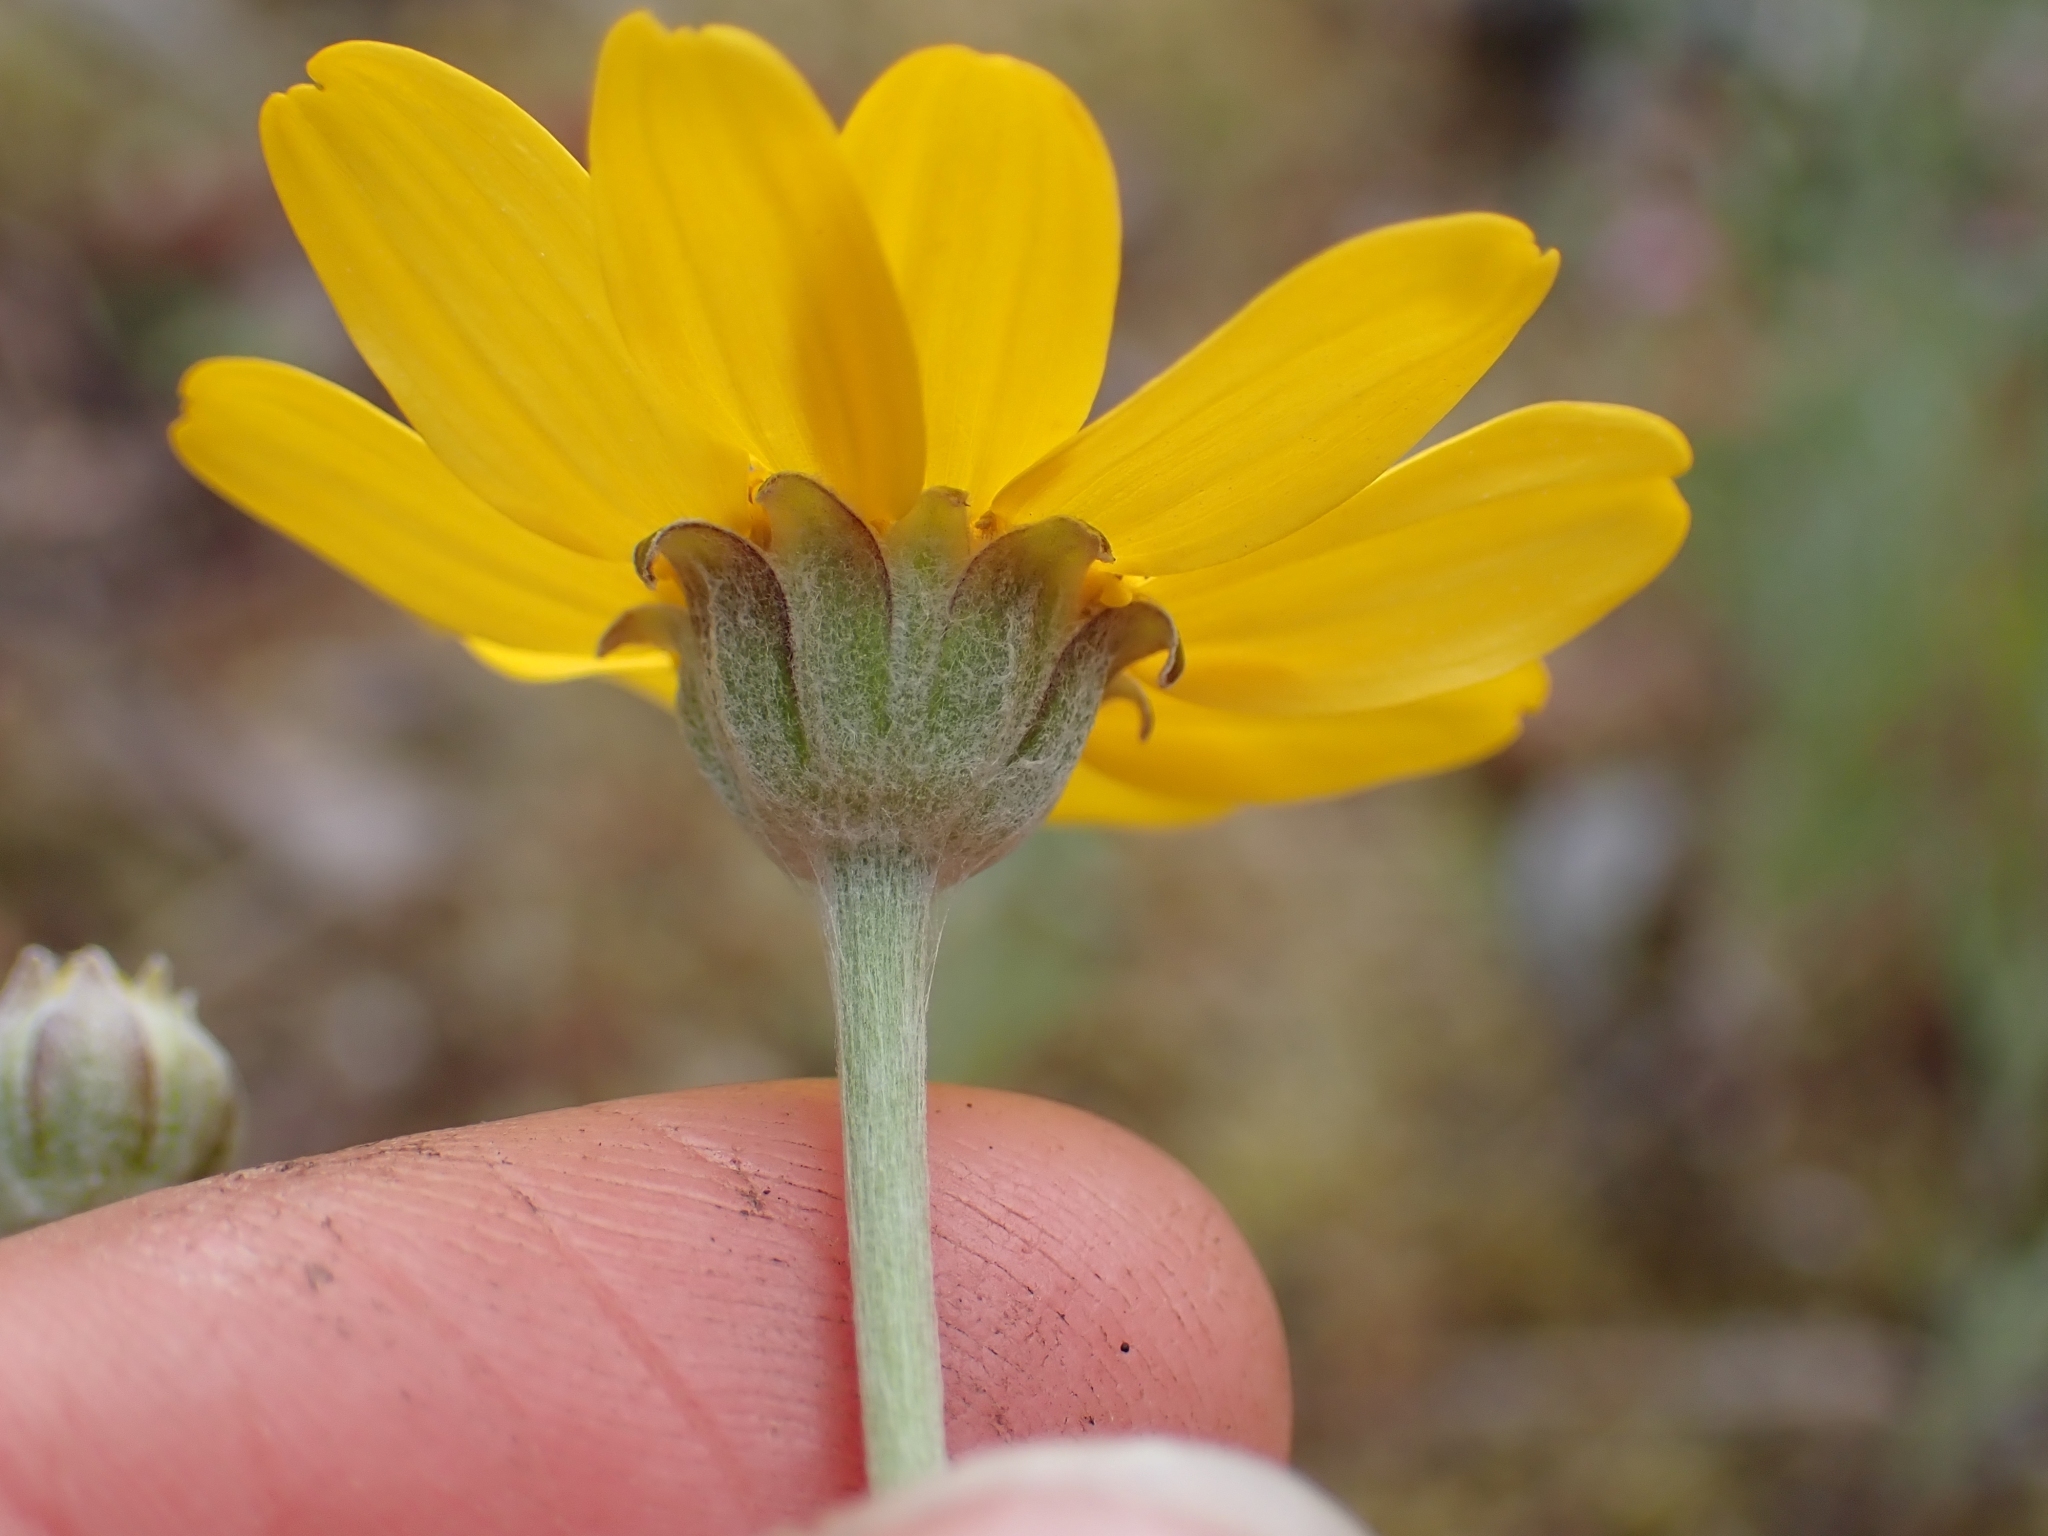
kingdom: Plantae
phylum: Tracheophyta
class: Magnoliopsida
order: Asterales
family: Asteraceae
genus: Eriophyllum
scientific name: Eriophyllum lanatum
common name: Common woolly-sunflower
